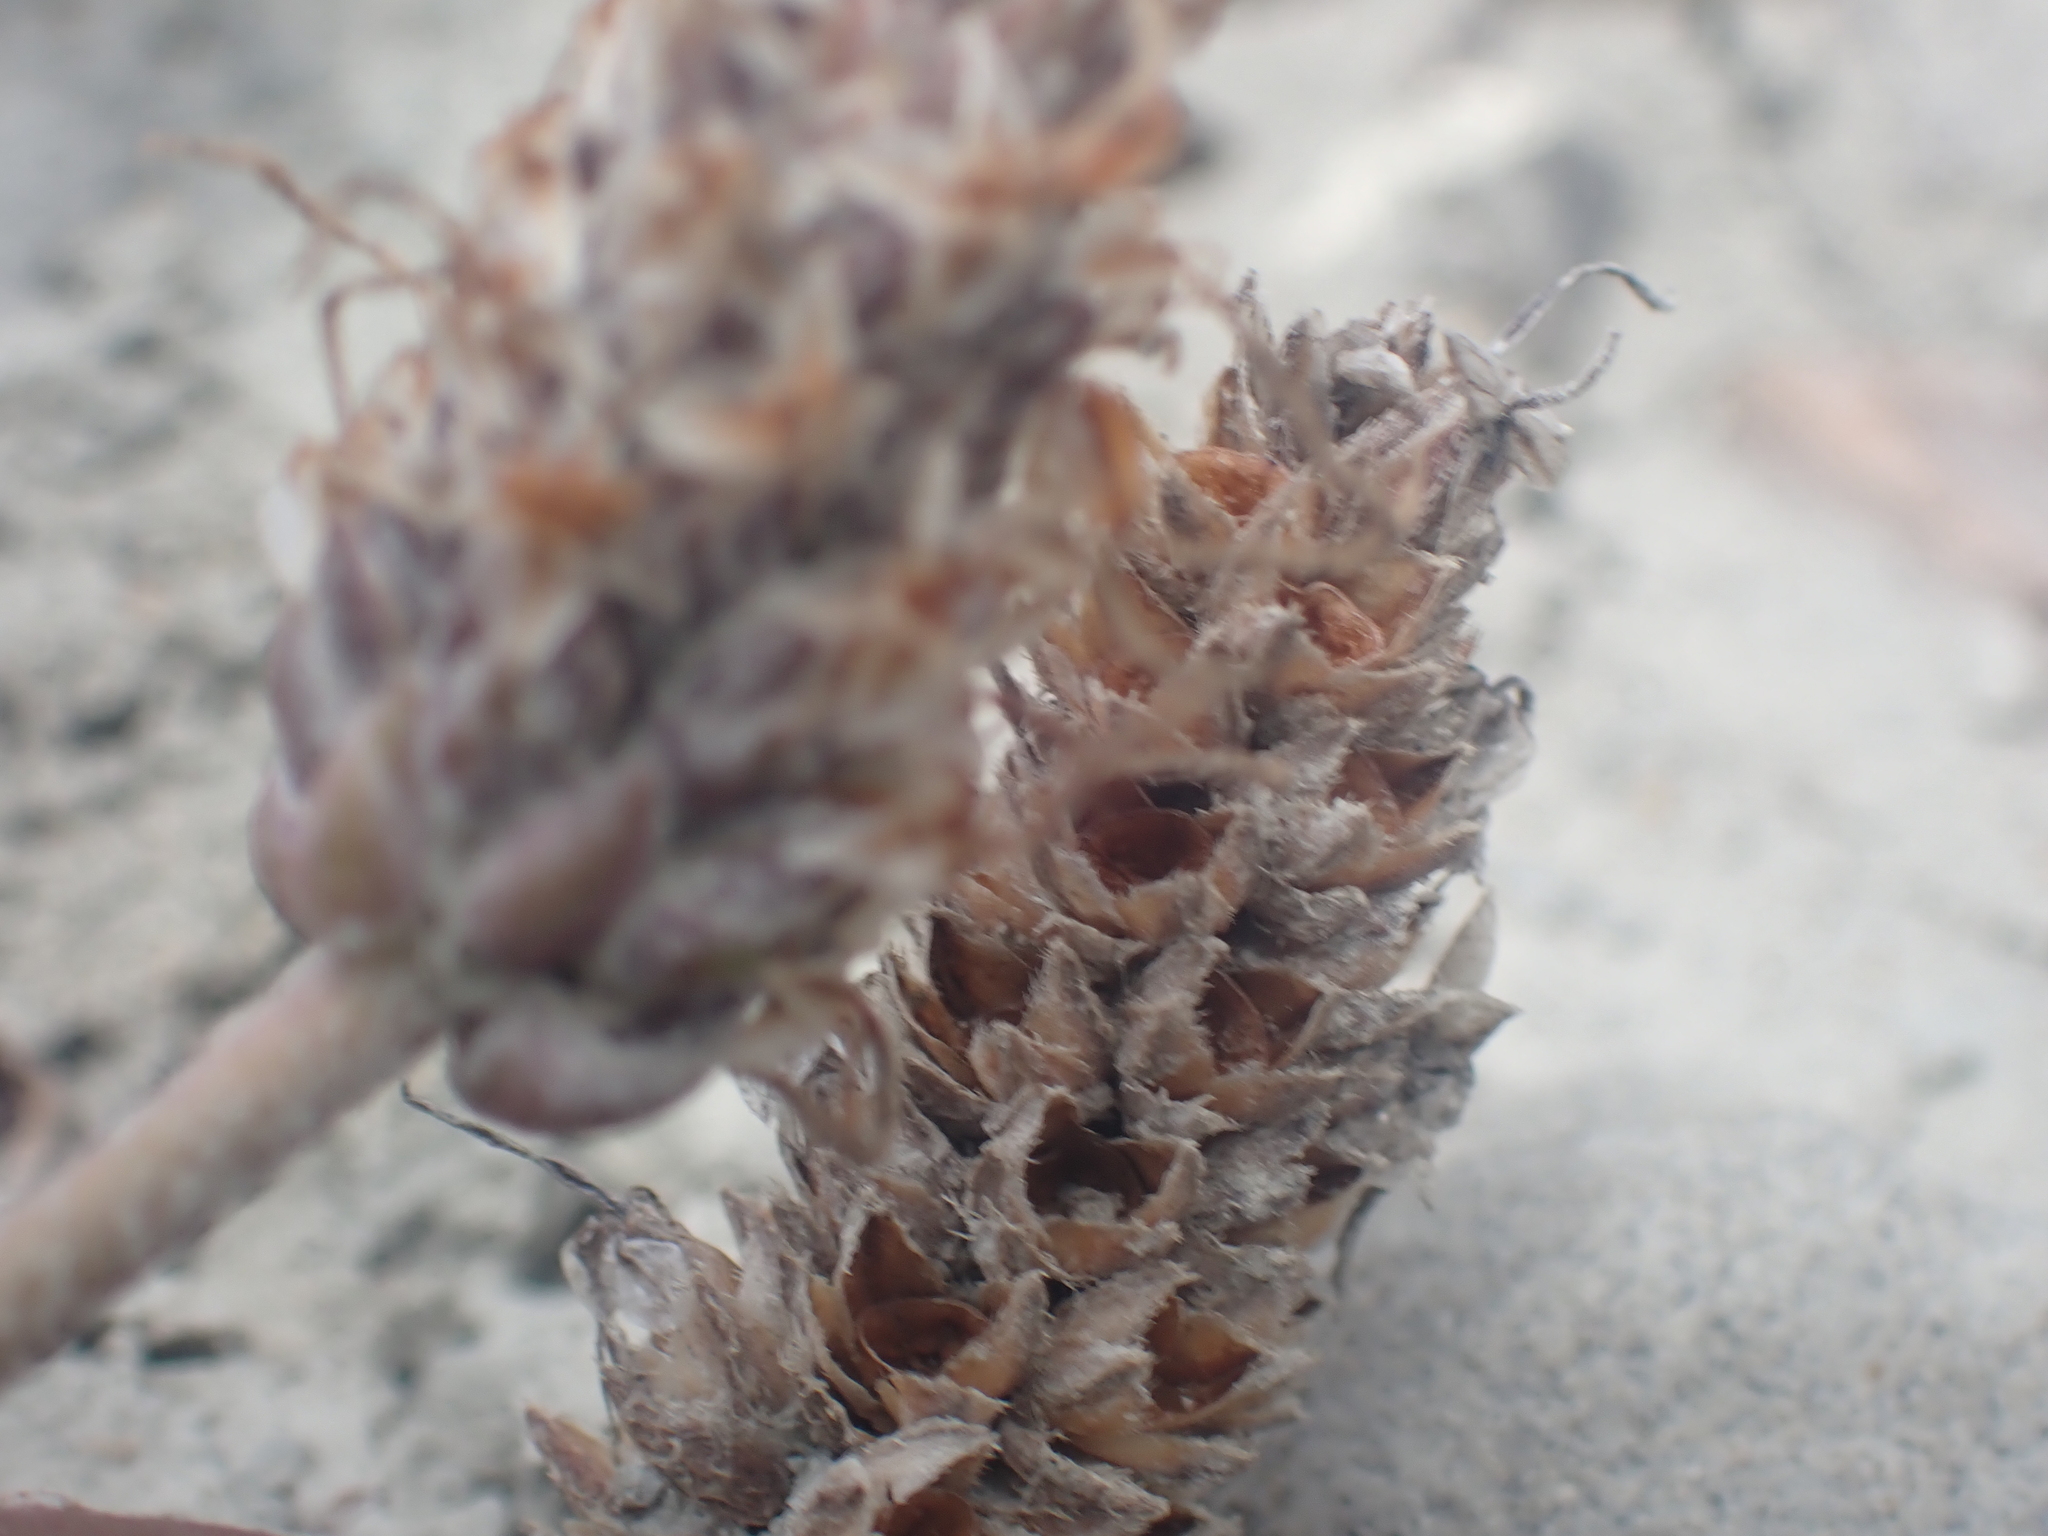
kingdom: Plantae
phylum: Tracheophyta
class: Magnoliopsida
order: Lamiales
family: Plantaginaceae
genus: Plantago
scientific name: Plantago spathulata
